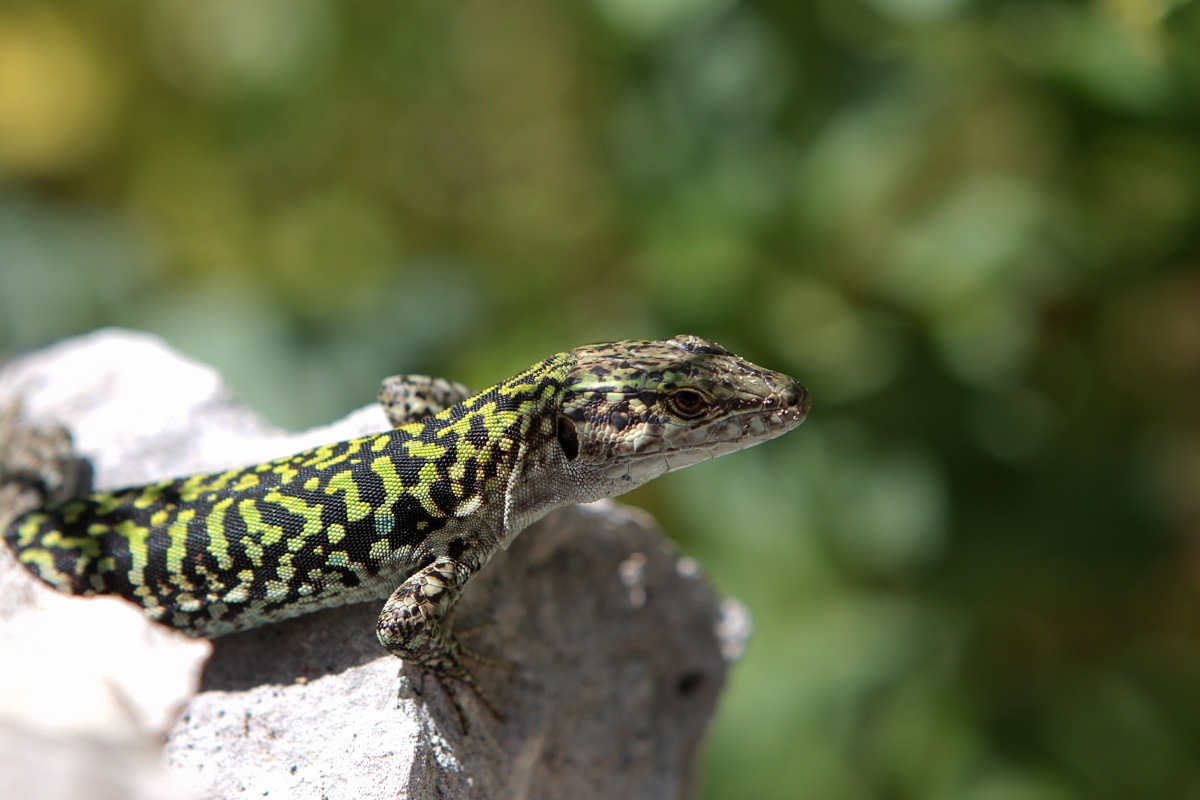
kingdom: Animalia
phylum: Chordata
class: Squamata
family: Lacertidae
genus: Podarcis
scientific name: Podarcis siculus
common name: Italian wall lizard
